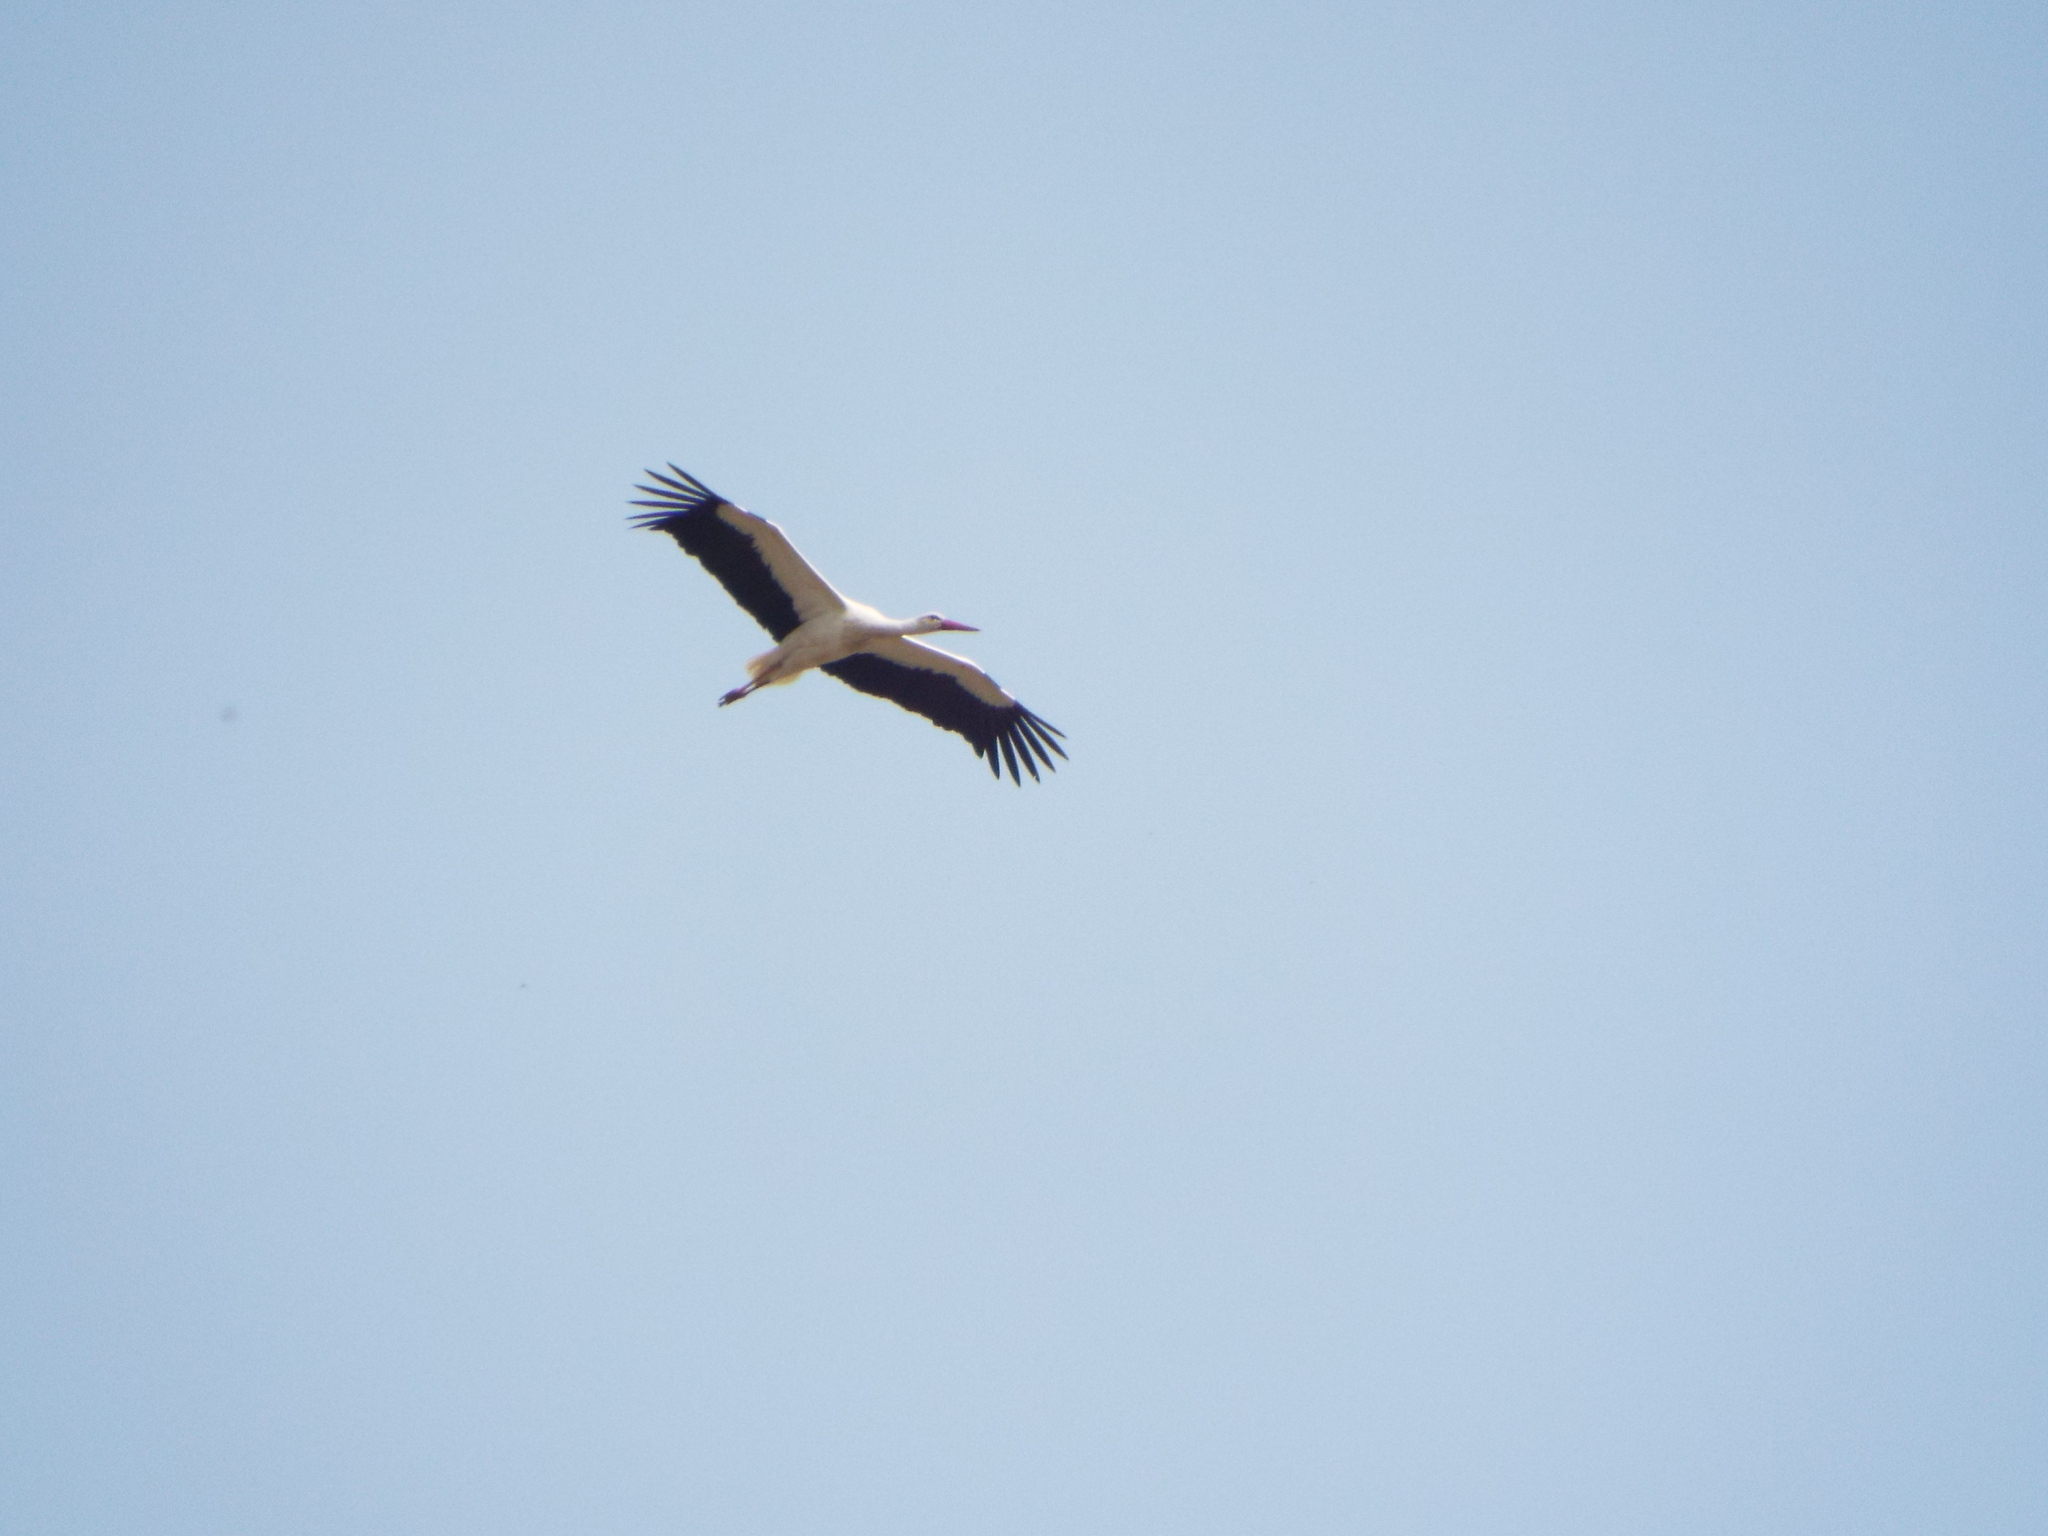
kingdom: Animalia
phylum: Chordata
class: Aves
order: Ciconiiformes
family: Ciconiidae
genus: Ciconia
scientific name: Ciconia ciconia
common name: White stork
